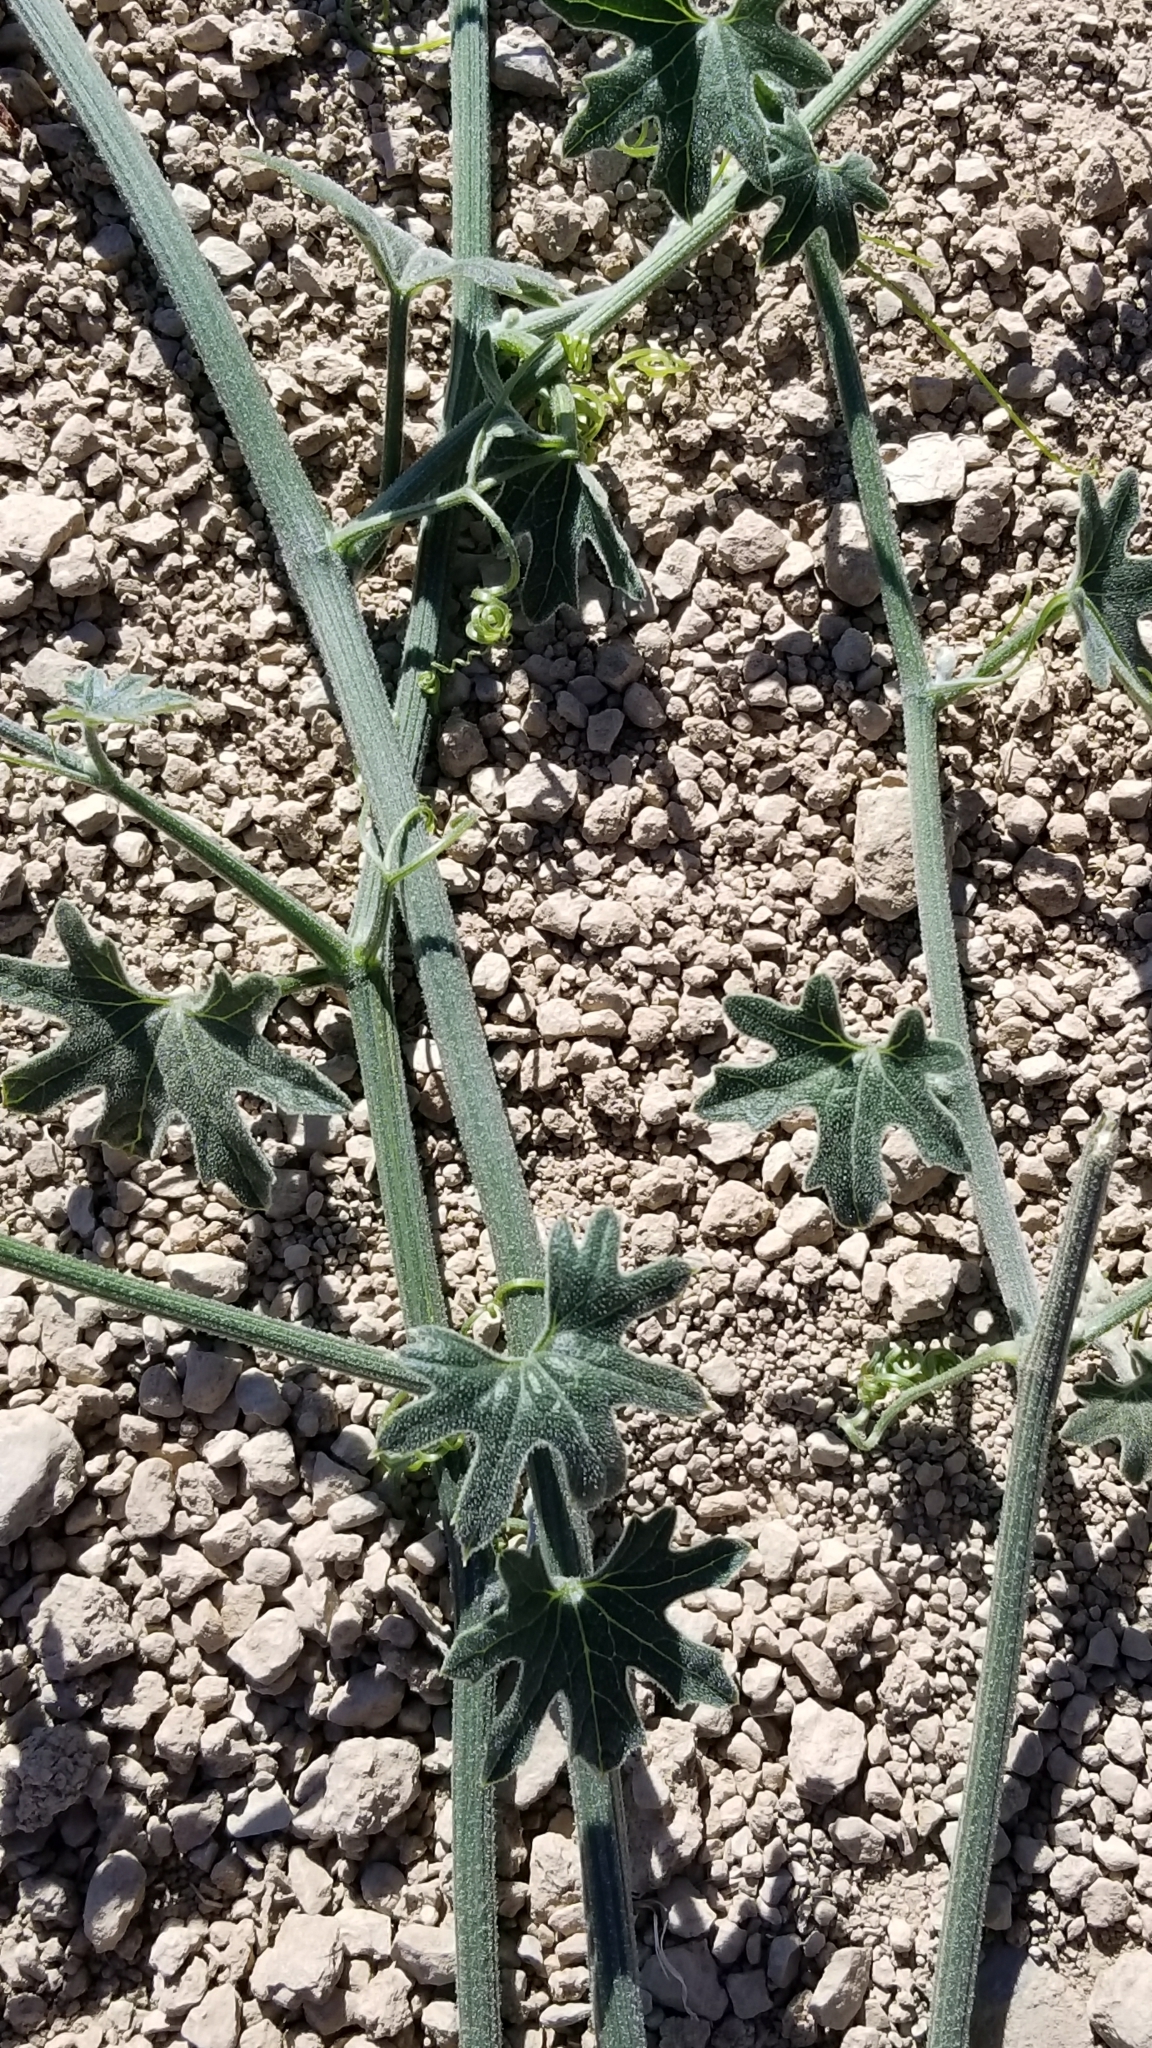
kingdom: Plantae
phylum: Tracheophyta
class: Magnoliopsida
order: Cucurbitales
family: Cucurbitaceae
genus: Marah
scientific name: Marah macrocarpa
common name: Cucamonga manroot
